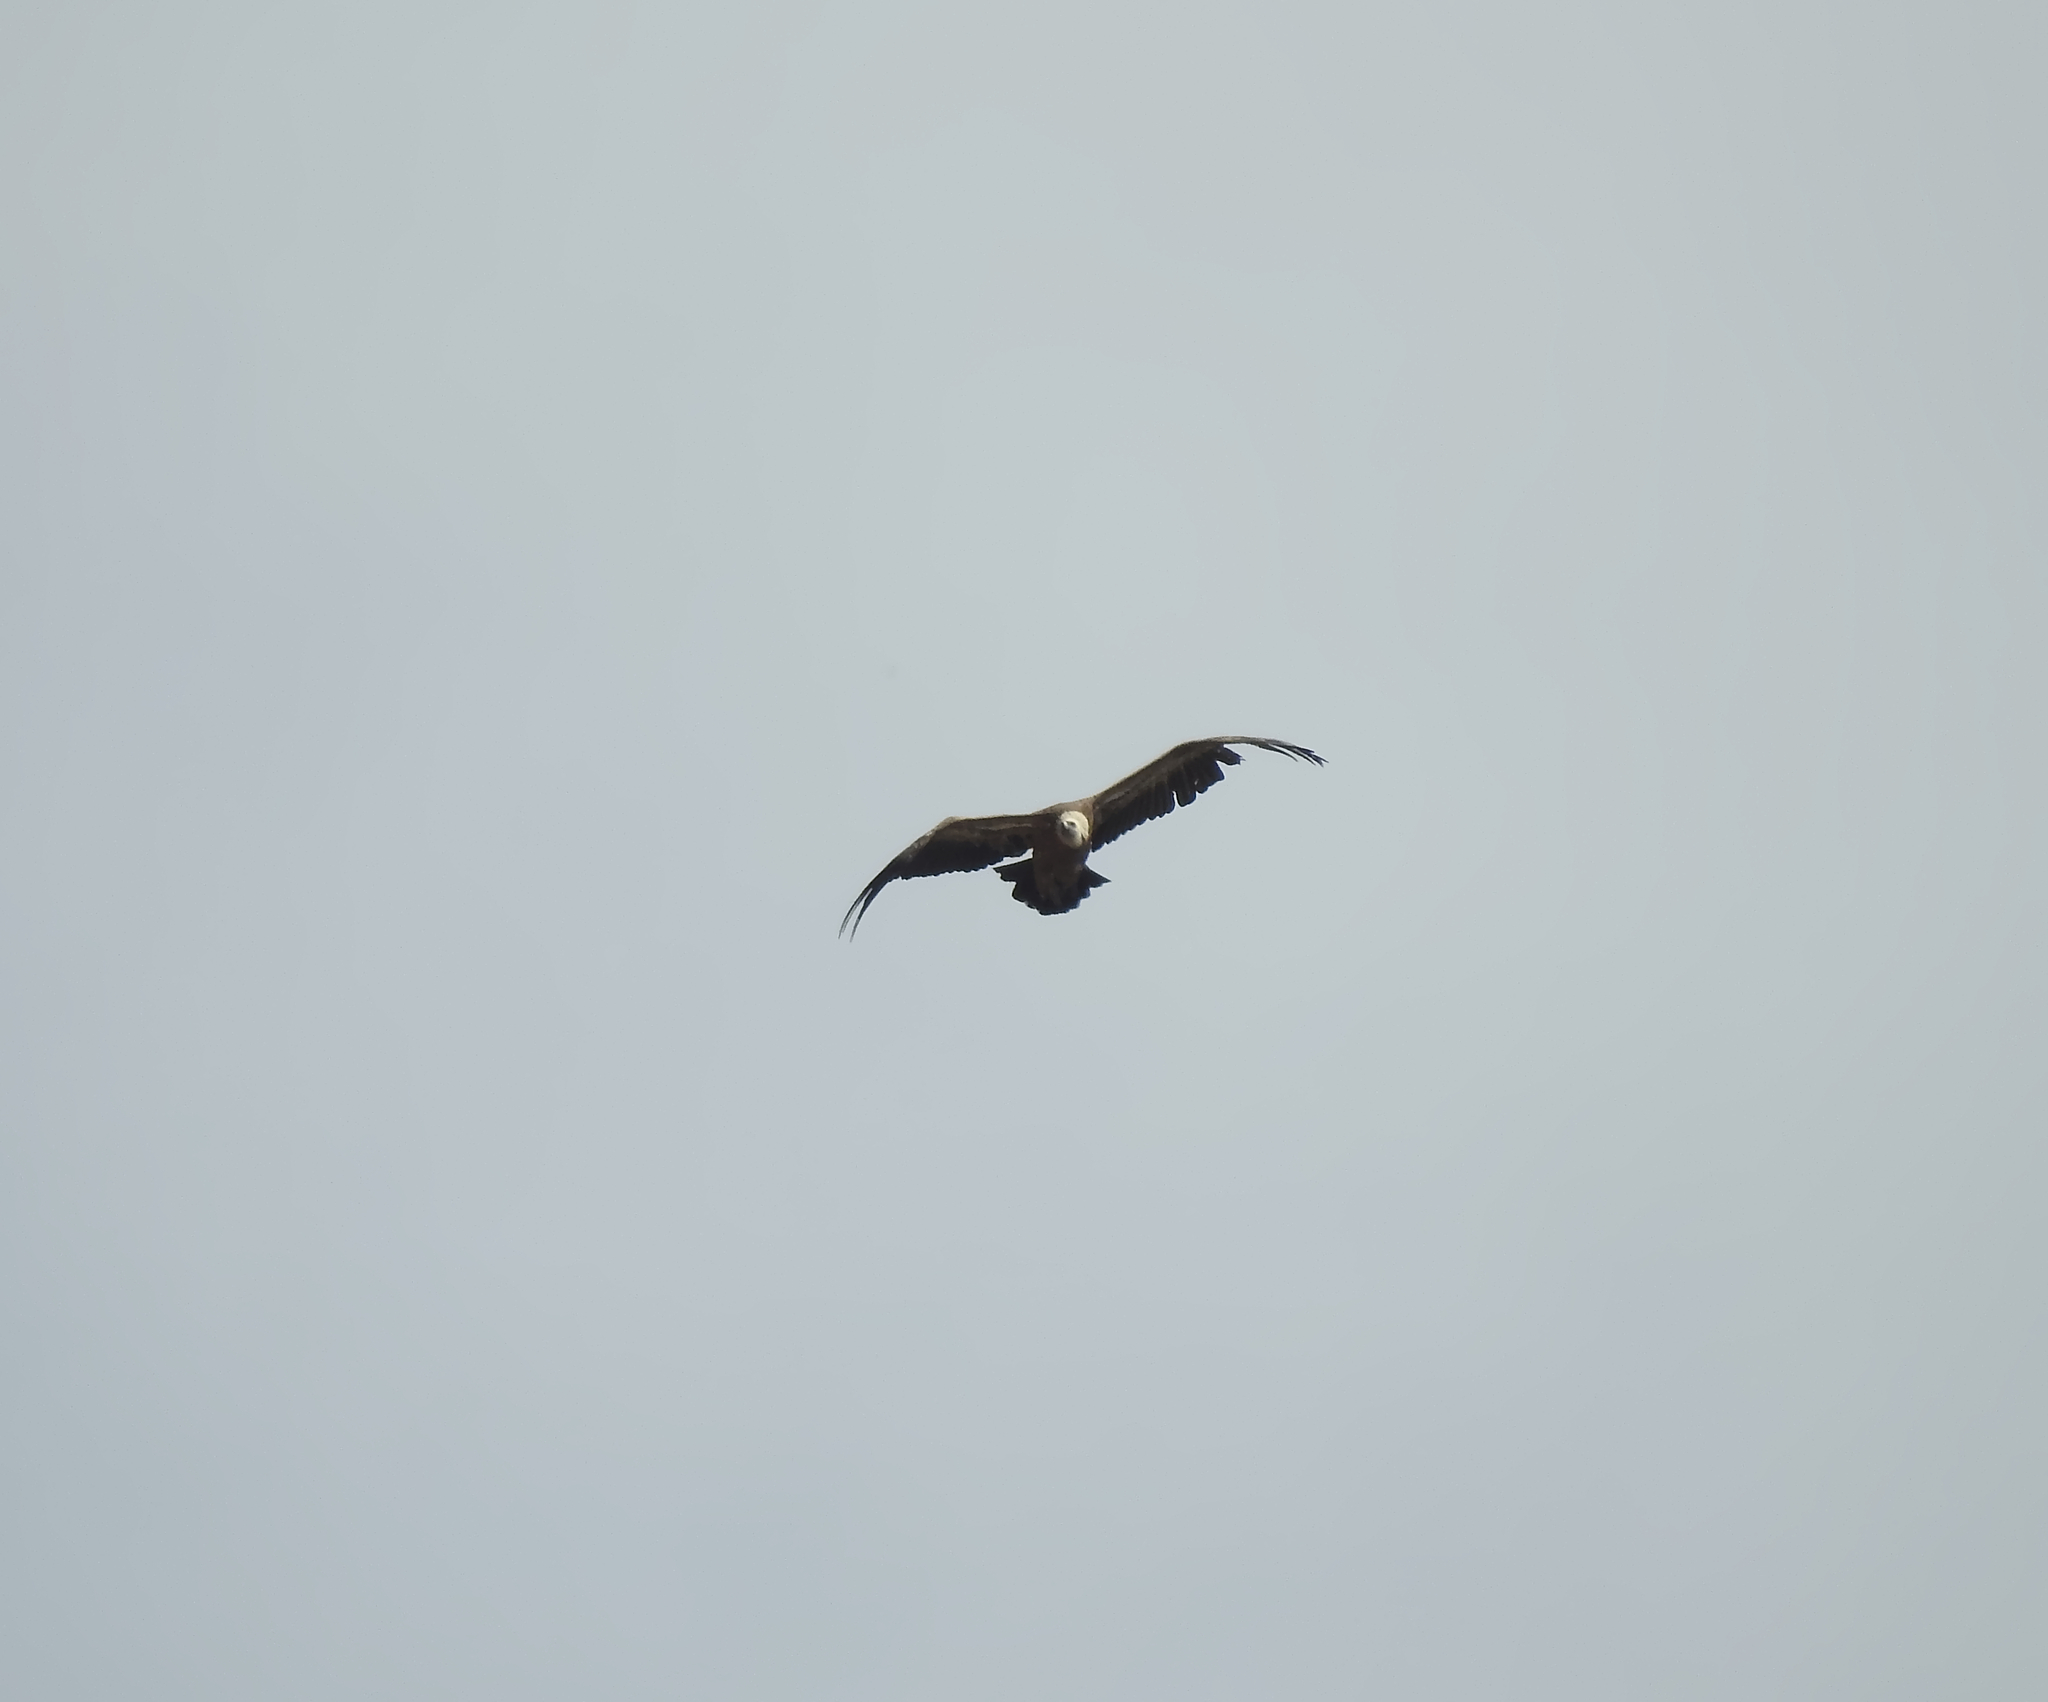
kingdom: Animalia
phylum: Chordata
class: Aves
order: Accipitriformes
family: Accipitridae
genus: Gyps
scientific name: Gyps fulvus
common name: Griffon vulture
